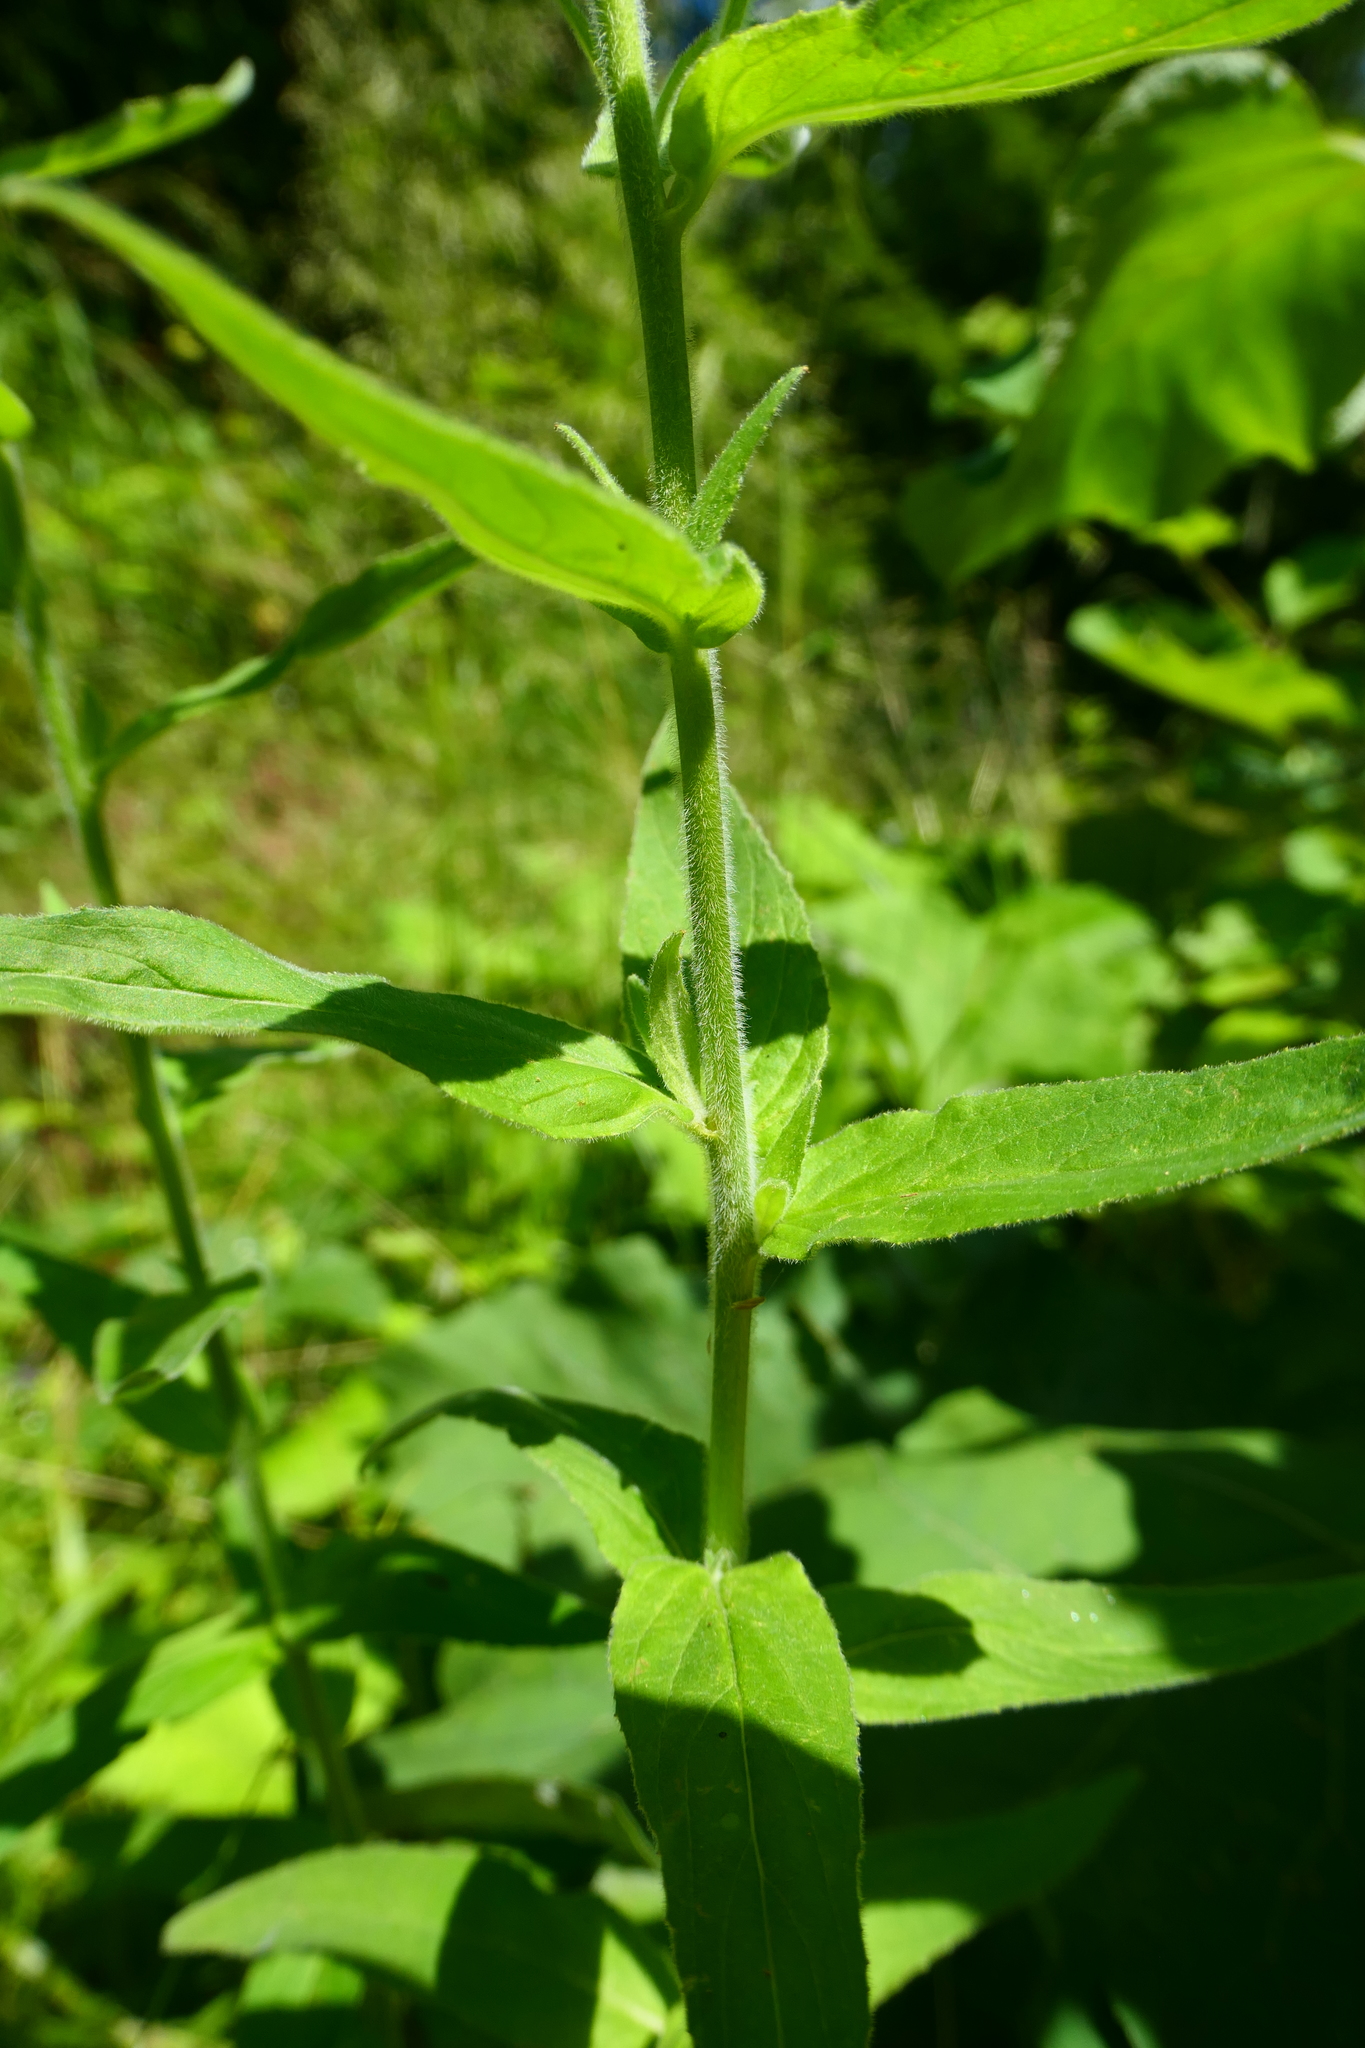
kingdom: Plantae
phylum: Tracheophyta
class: Magnoliopsida
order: Myrtales
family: Onagraceae
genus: Epilobium
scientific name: Epilobium parviflorum
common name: Hoary willowherb
